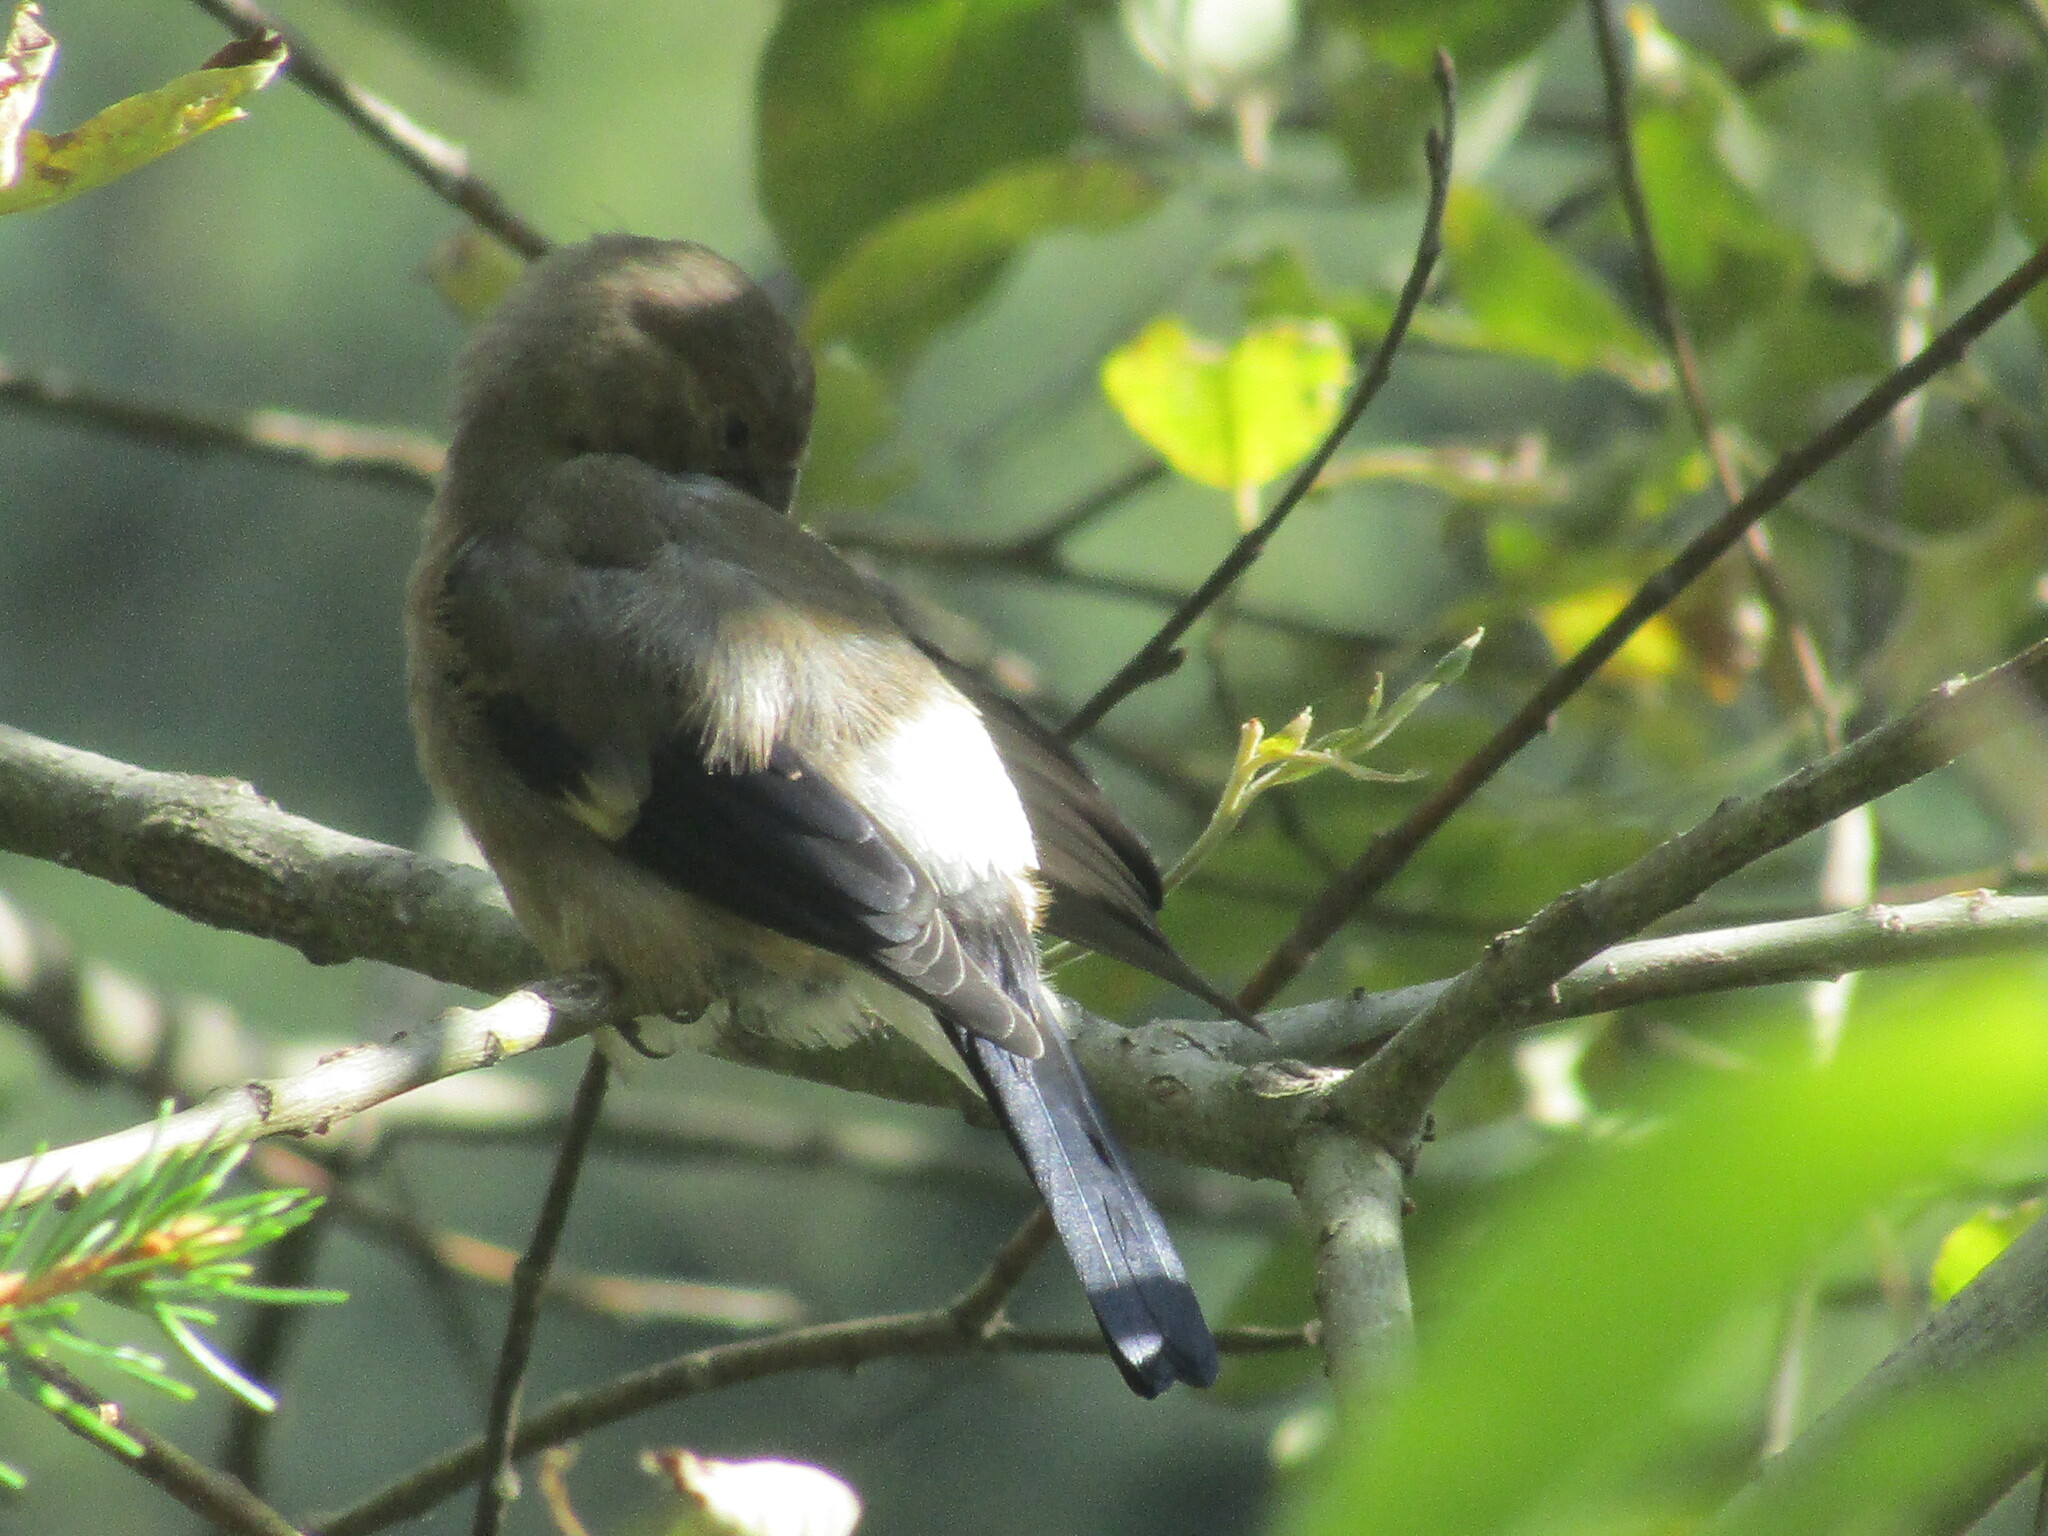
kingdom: Animalia
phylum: Chordata
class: Aves
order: Passeriformes
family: Fringillidae
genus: Pyrrhula
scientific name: Pyrrhula pyrrhula
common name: Eurasian bullfinch
